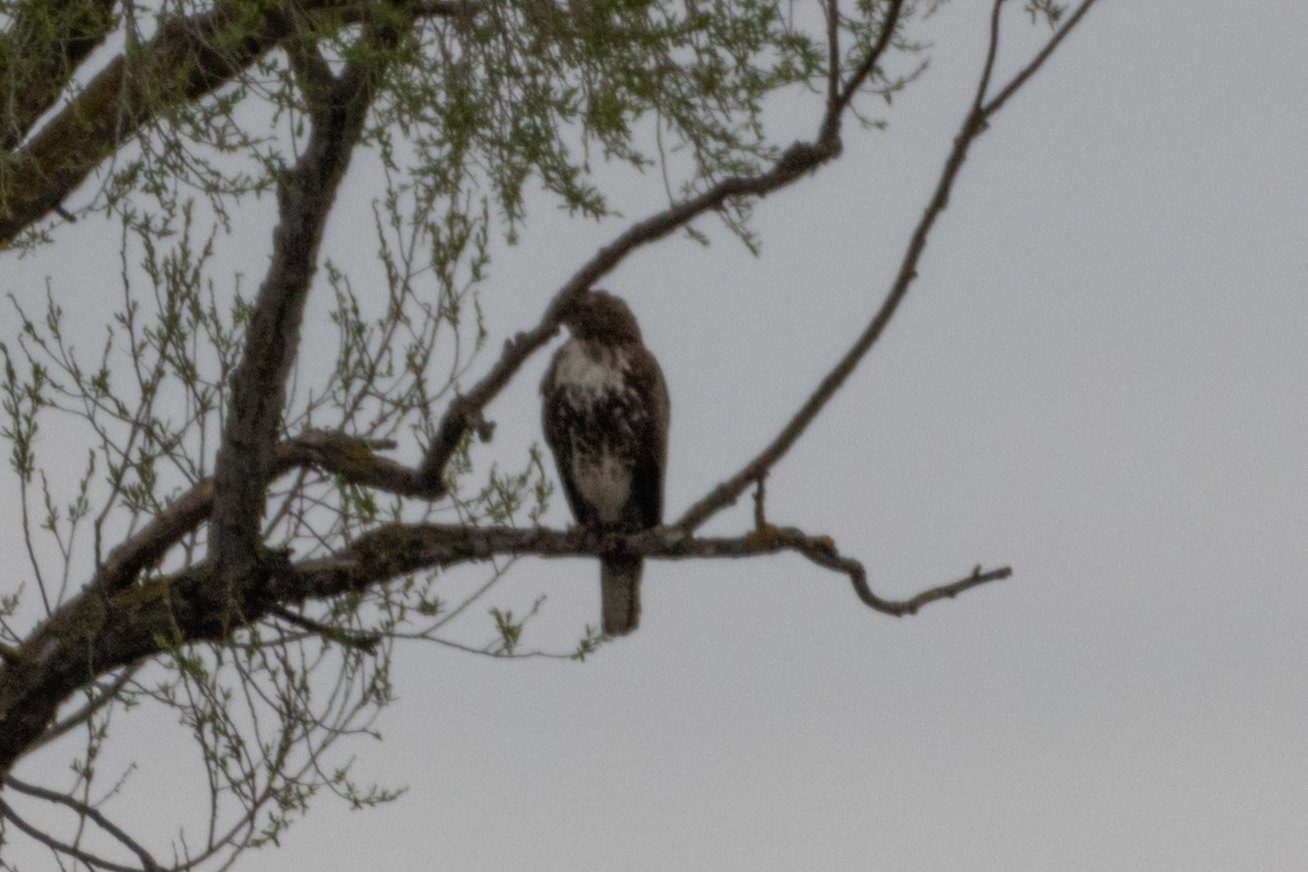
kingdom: Animalia
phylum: Chordata
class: Aves
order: Accipitriformes
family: Accipitridae
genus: Buteo
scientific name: Buteo jamaicensis
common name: Red-tailed hawk
